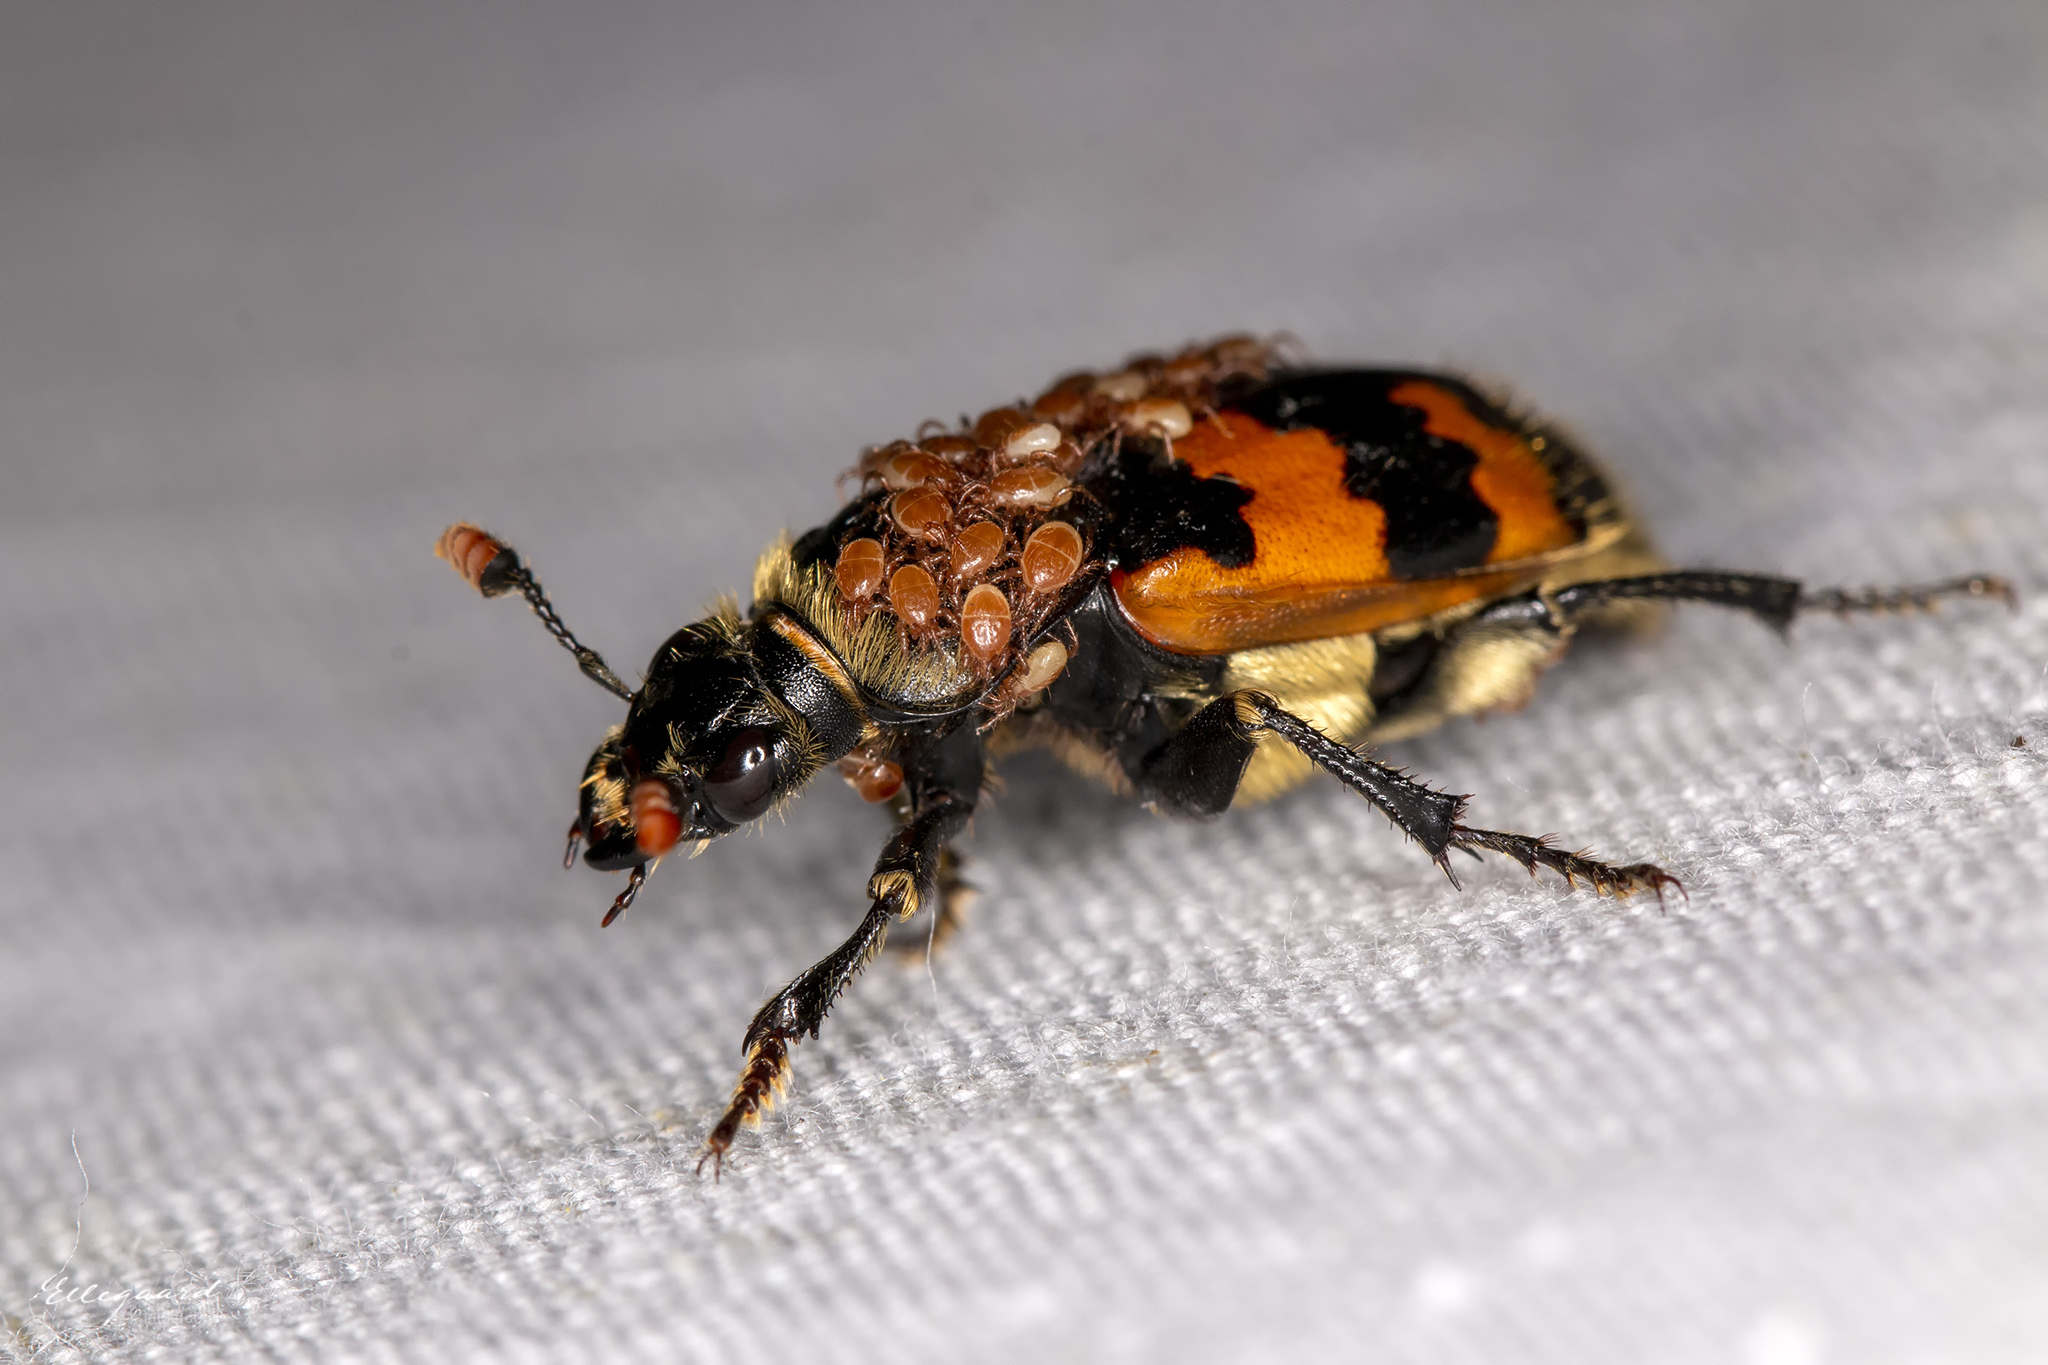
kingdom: Animalia
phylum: Arthropoda
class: Insecta
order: Coleoptera
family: Staphylinidae
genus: Nicrophorus
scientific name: Nicrophorus vespillo
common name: Common burying beetle
